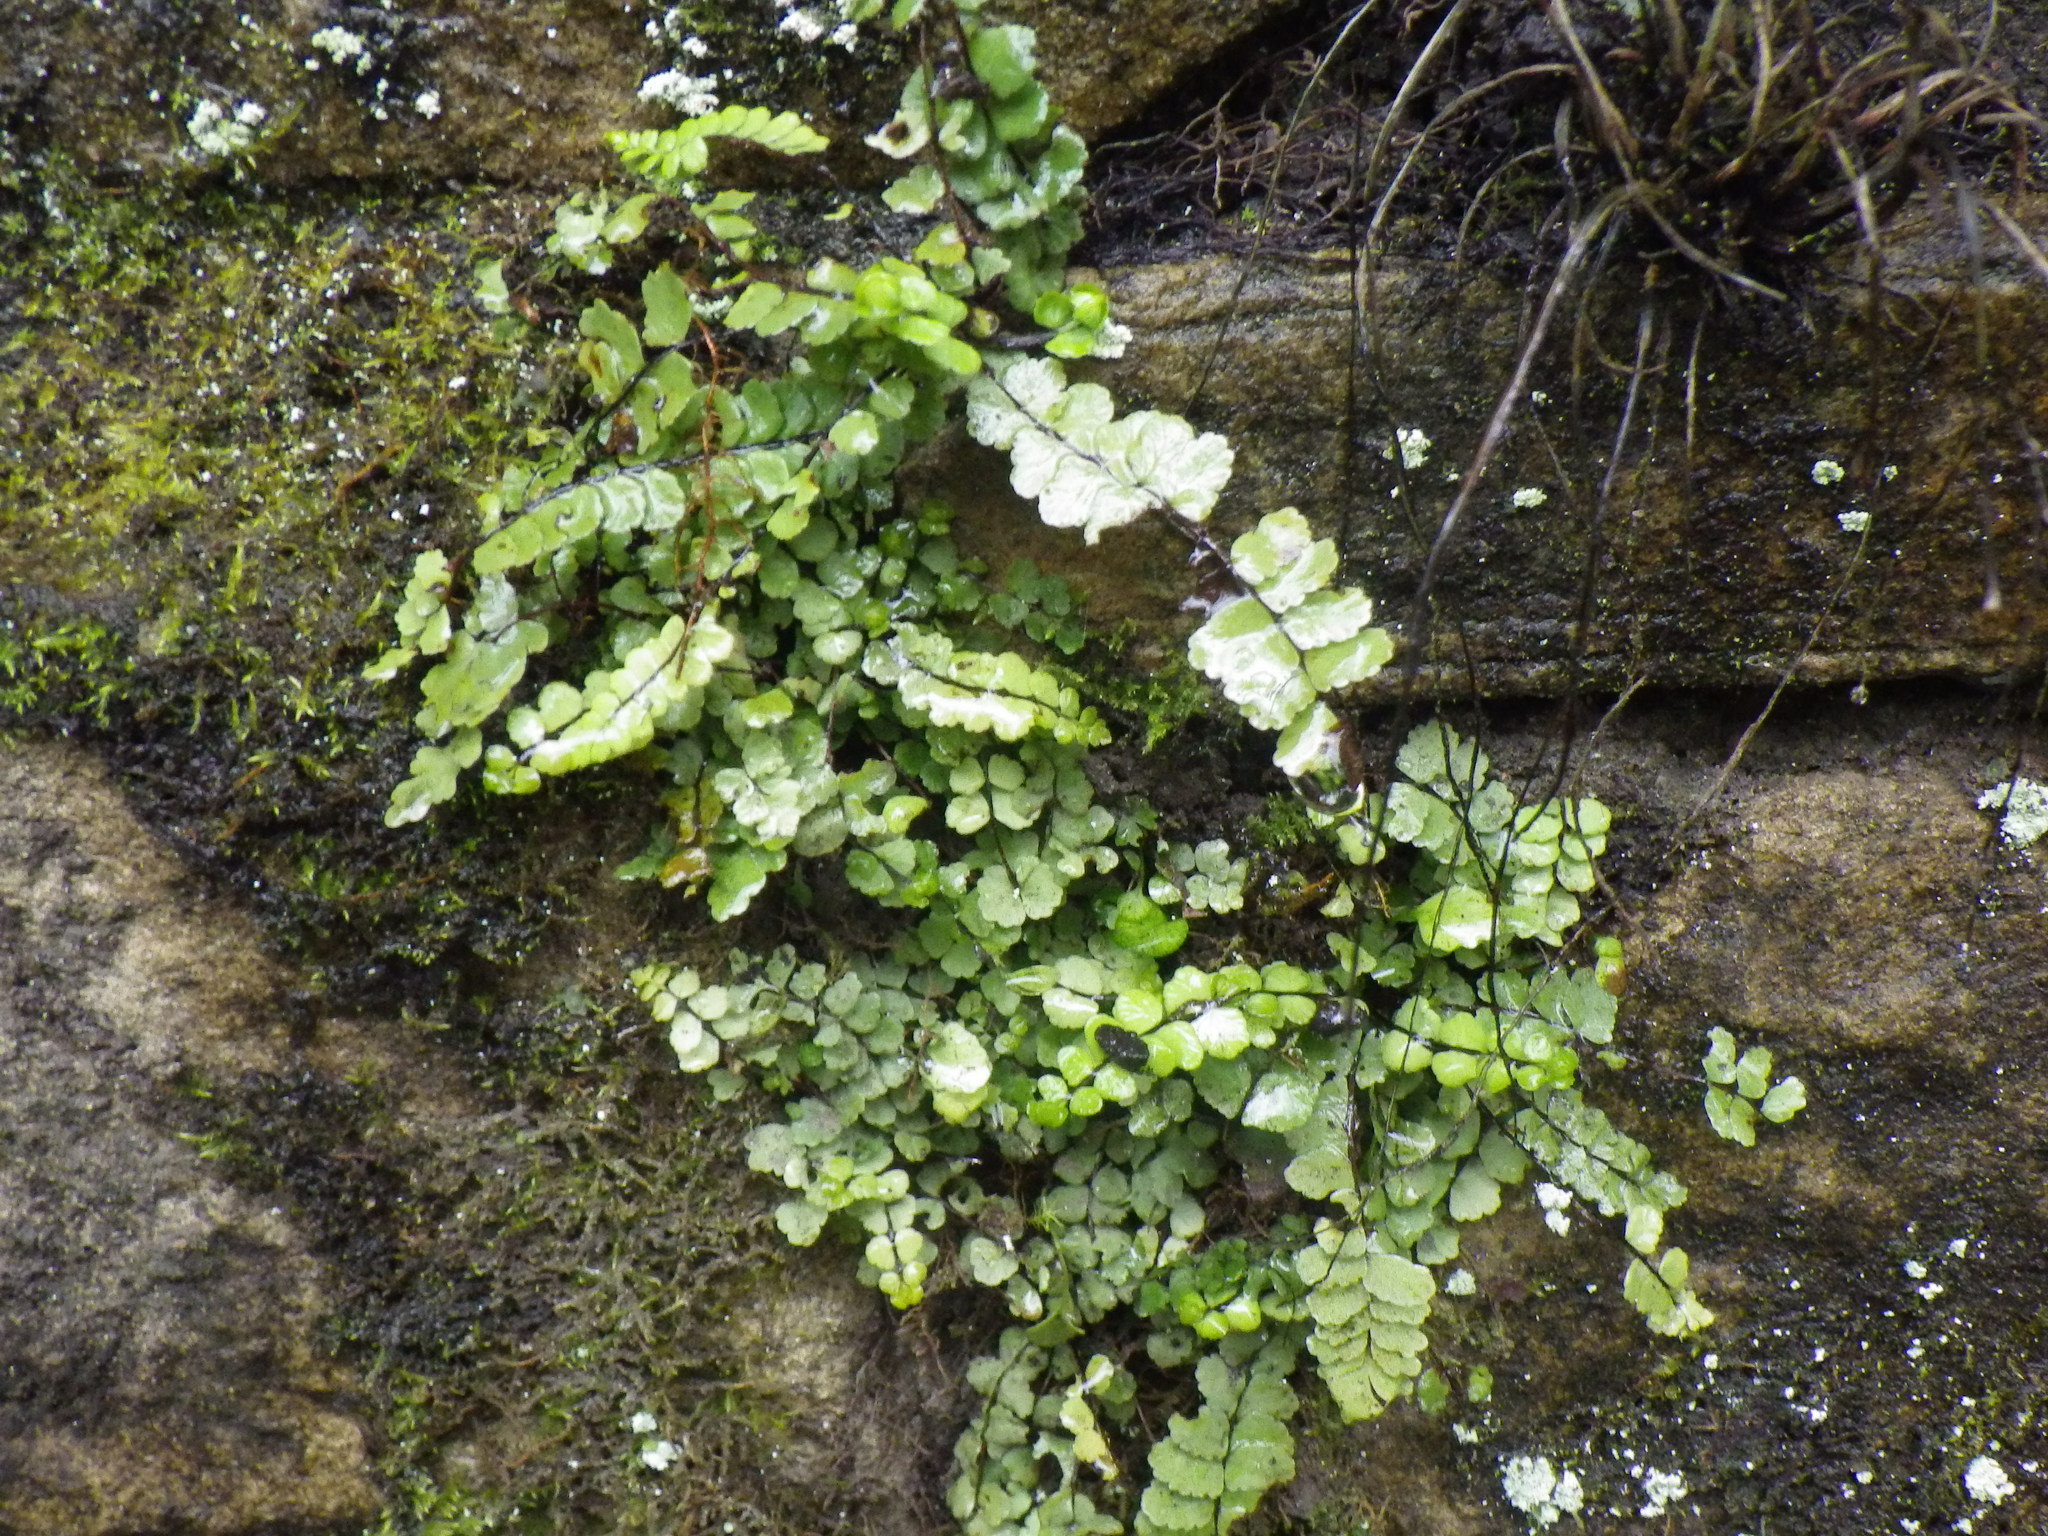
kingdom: Plantae
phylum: Tracheophyta
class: Polypodiopsida
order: Polypodiales
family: Aspleniaceae
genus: Asplenium
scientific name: Asplenium trichomanes
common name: Maidenhair spleenwort
